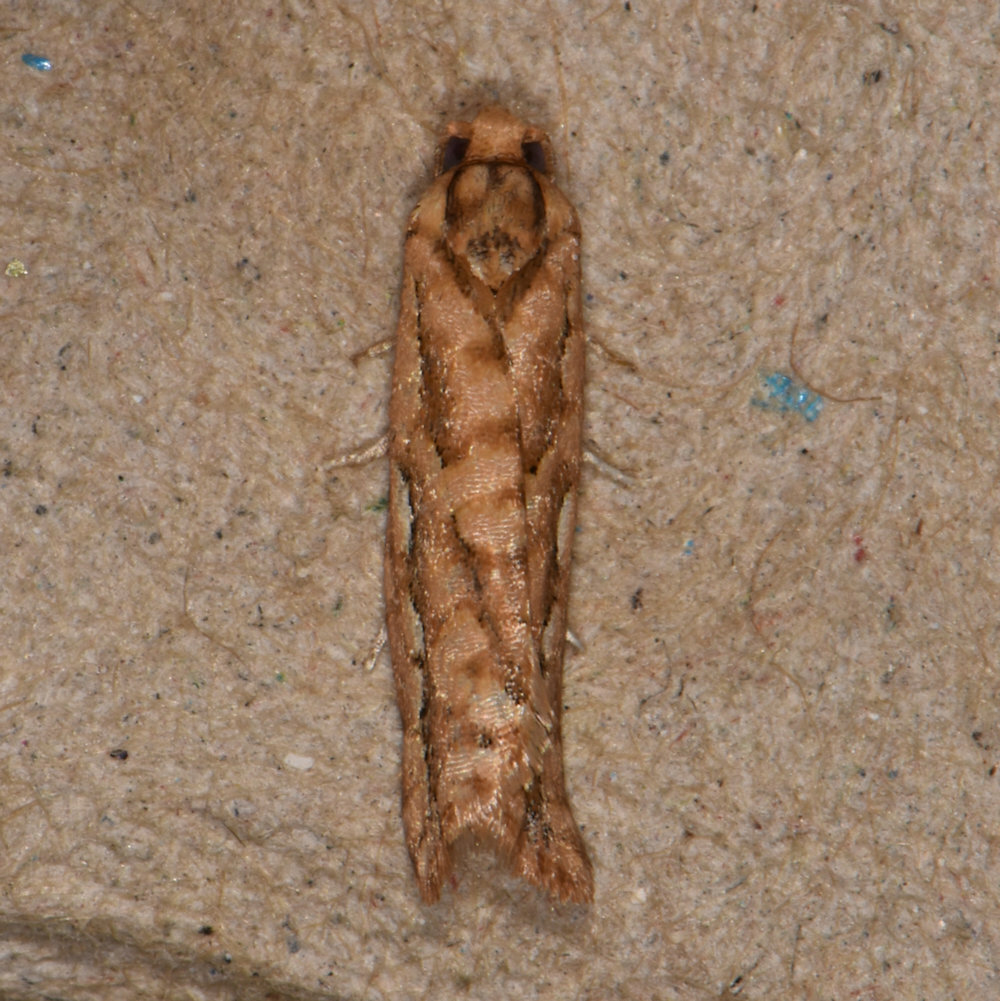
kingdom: Animalia
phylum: Arthropoda
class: Insecta
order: Lepidoptera
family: Tortricidae
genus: Diedra
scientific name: Diedra cockerellana
